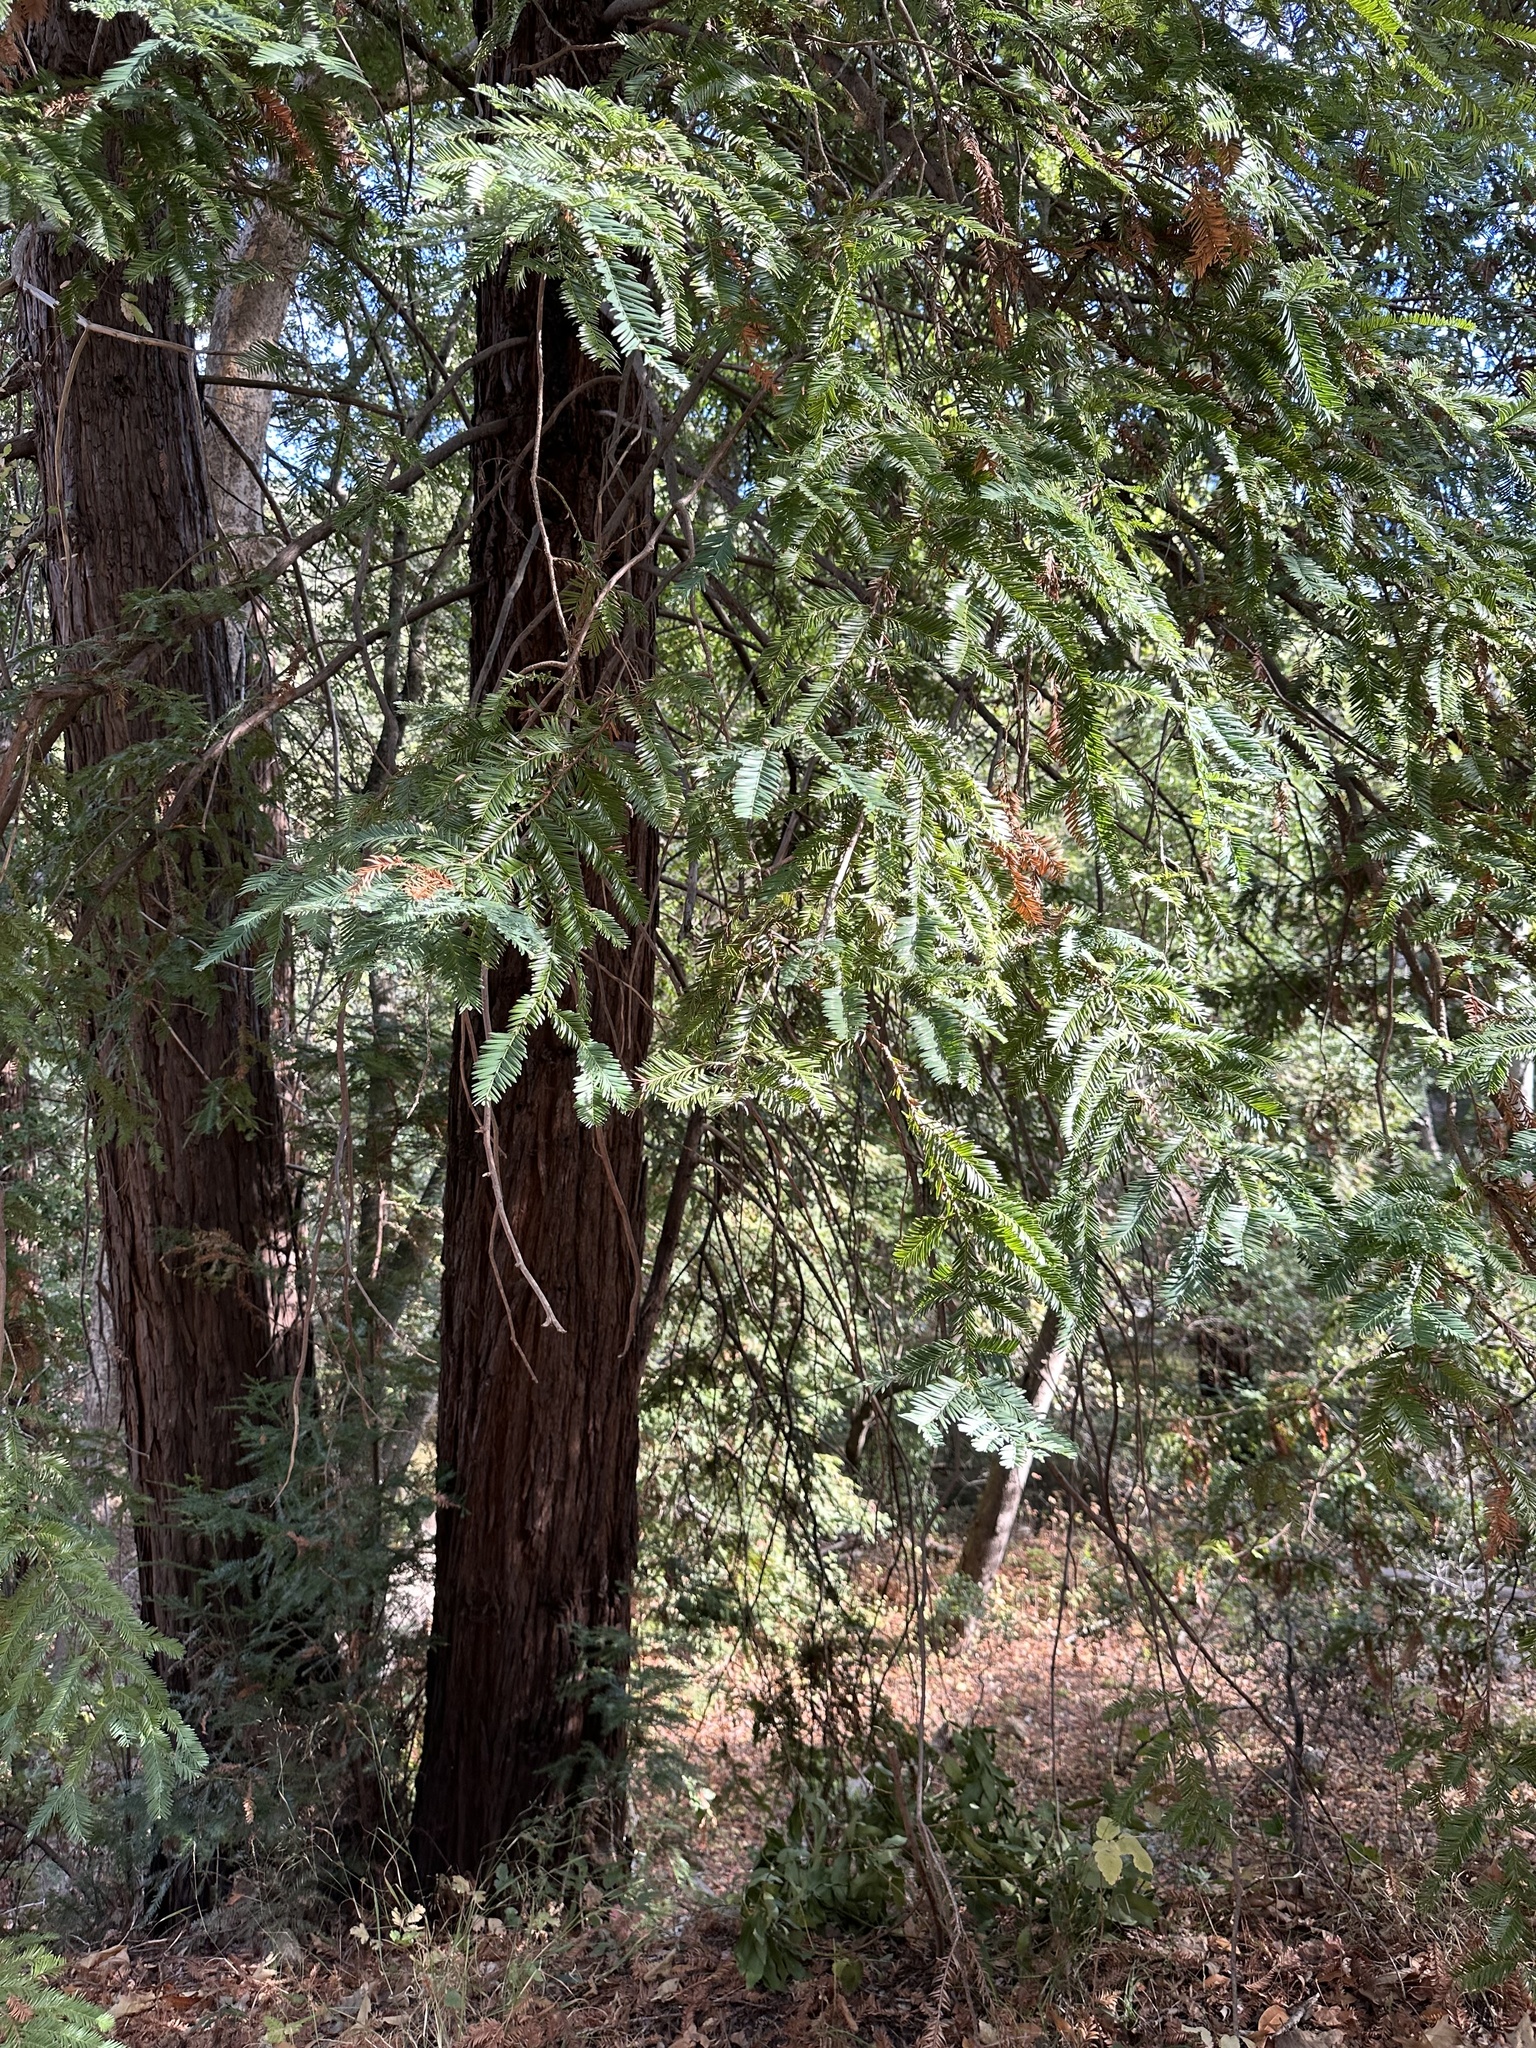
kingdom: Plantae
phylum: Tracheophyta
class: Pinopsida
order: Pinales
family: Cupressaceae
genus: Sequoia
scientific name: Sequoia sempervirens
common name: Coast redwood
